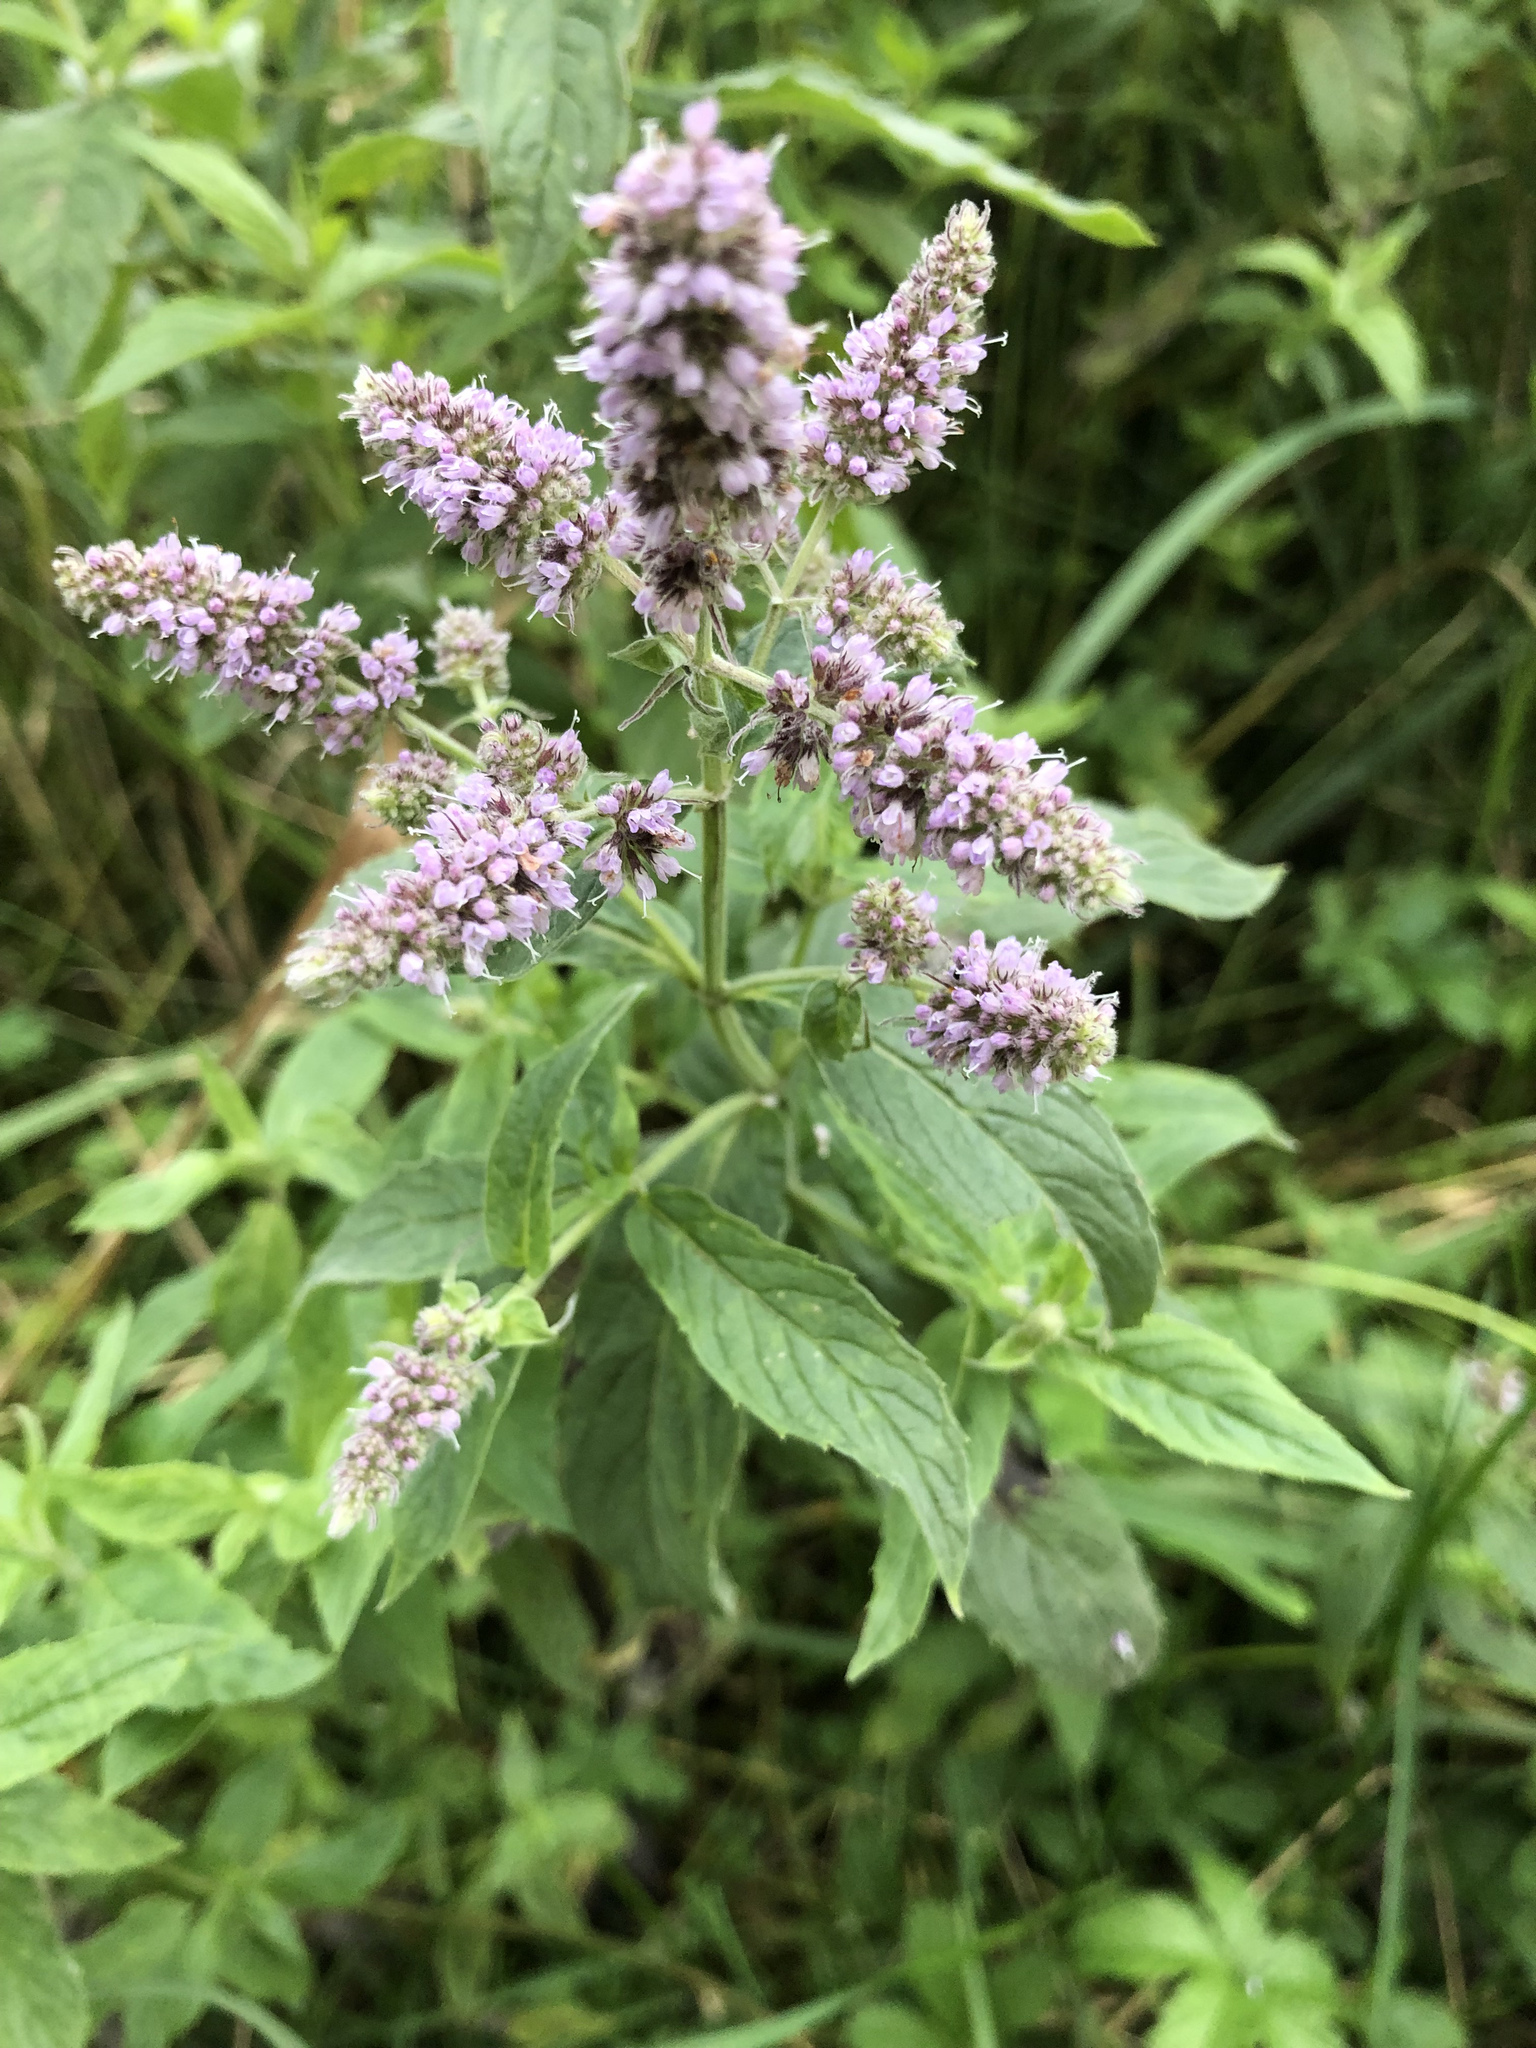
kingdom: Plantae
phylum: Tracheophyta
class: Magnoliopsida
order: Lamiales
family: Lamiaceae
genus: Mentha
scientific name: Mentha longifolia
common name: Horse mint
